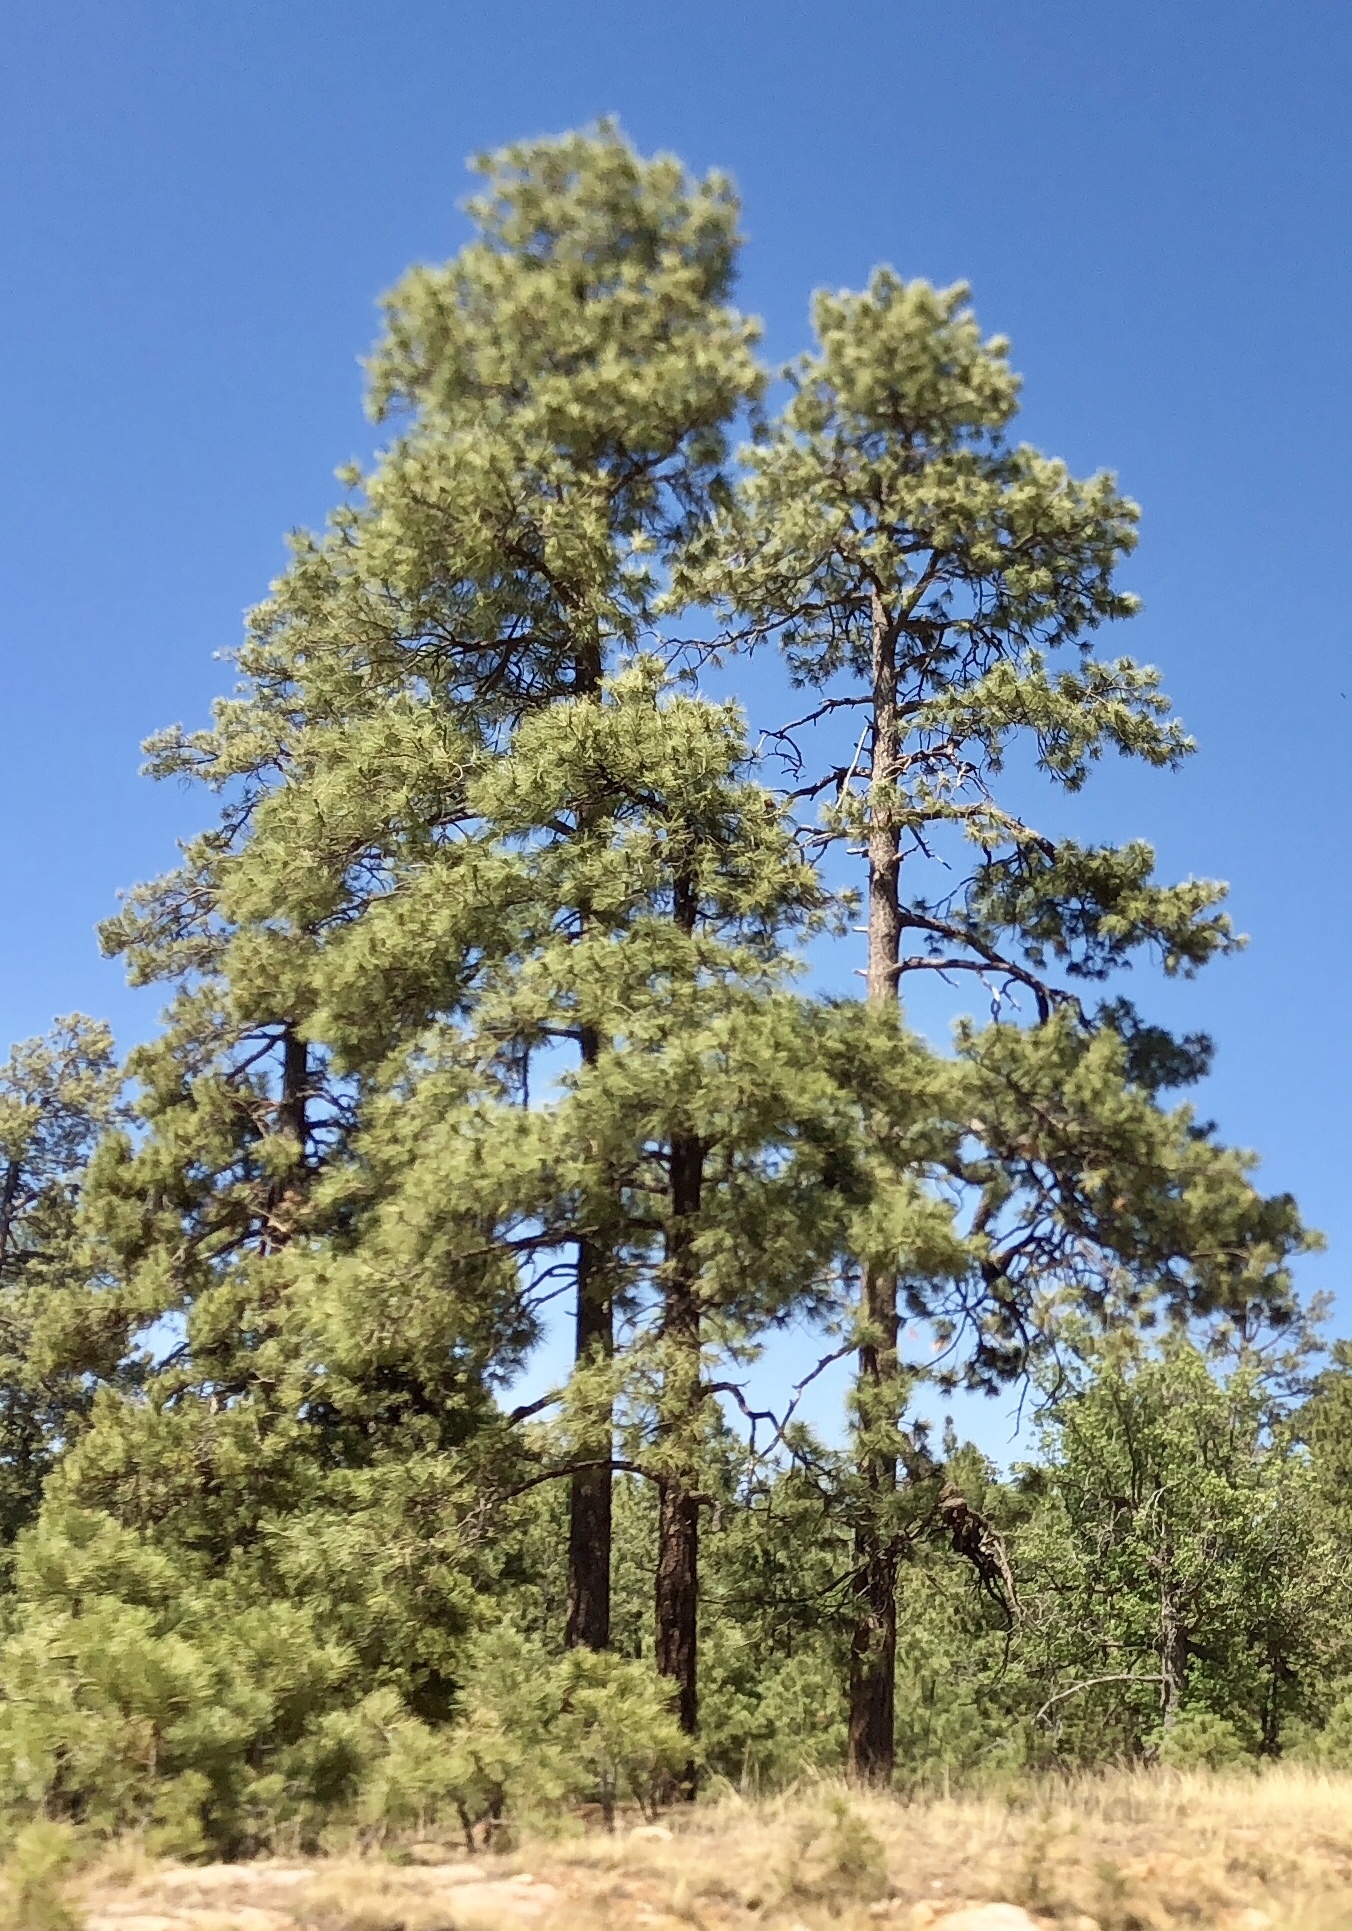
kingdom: Plantae
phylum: Tracheophyta
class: Pinopsida
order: Pinales
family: Pinaceae
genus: Pinus
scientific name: Pinus ponderosa
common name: Western yellow-pine
